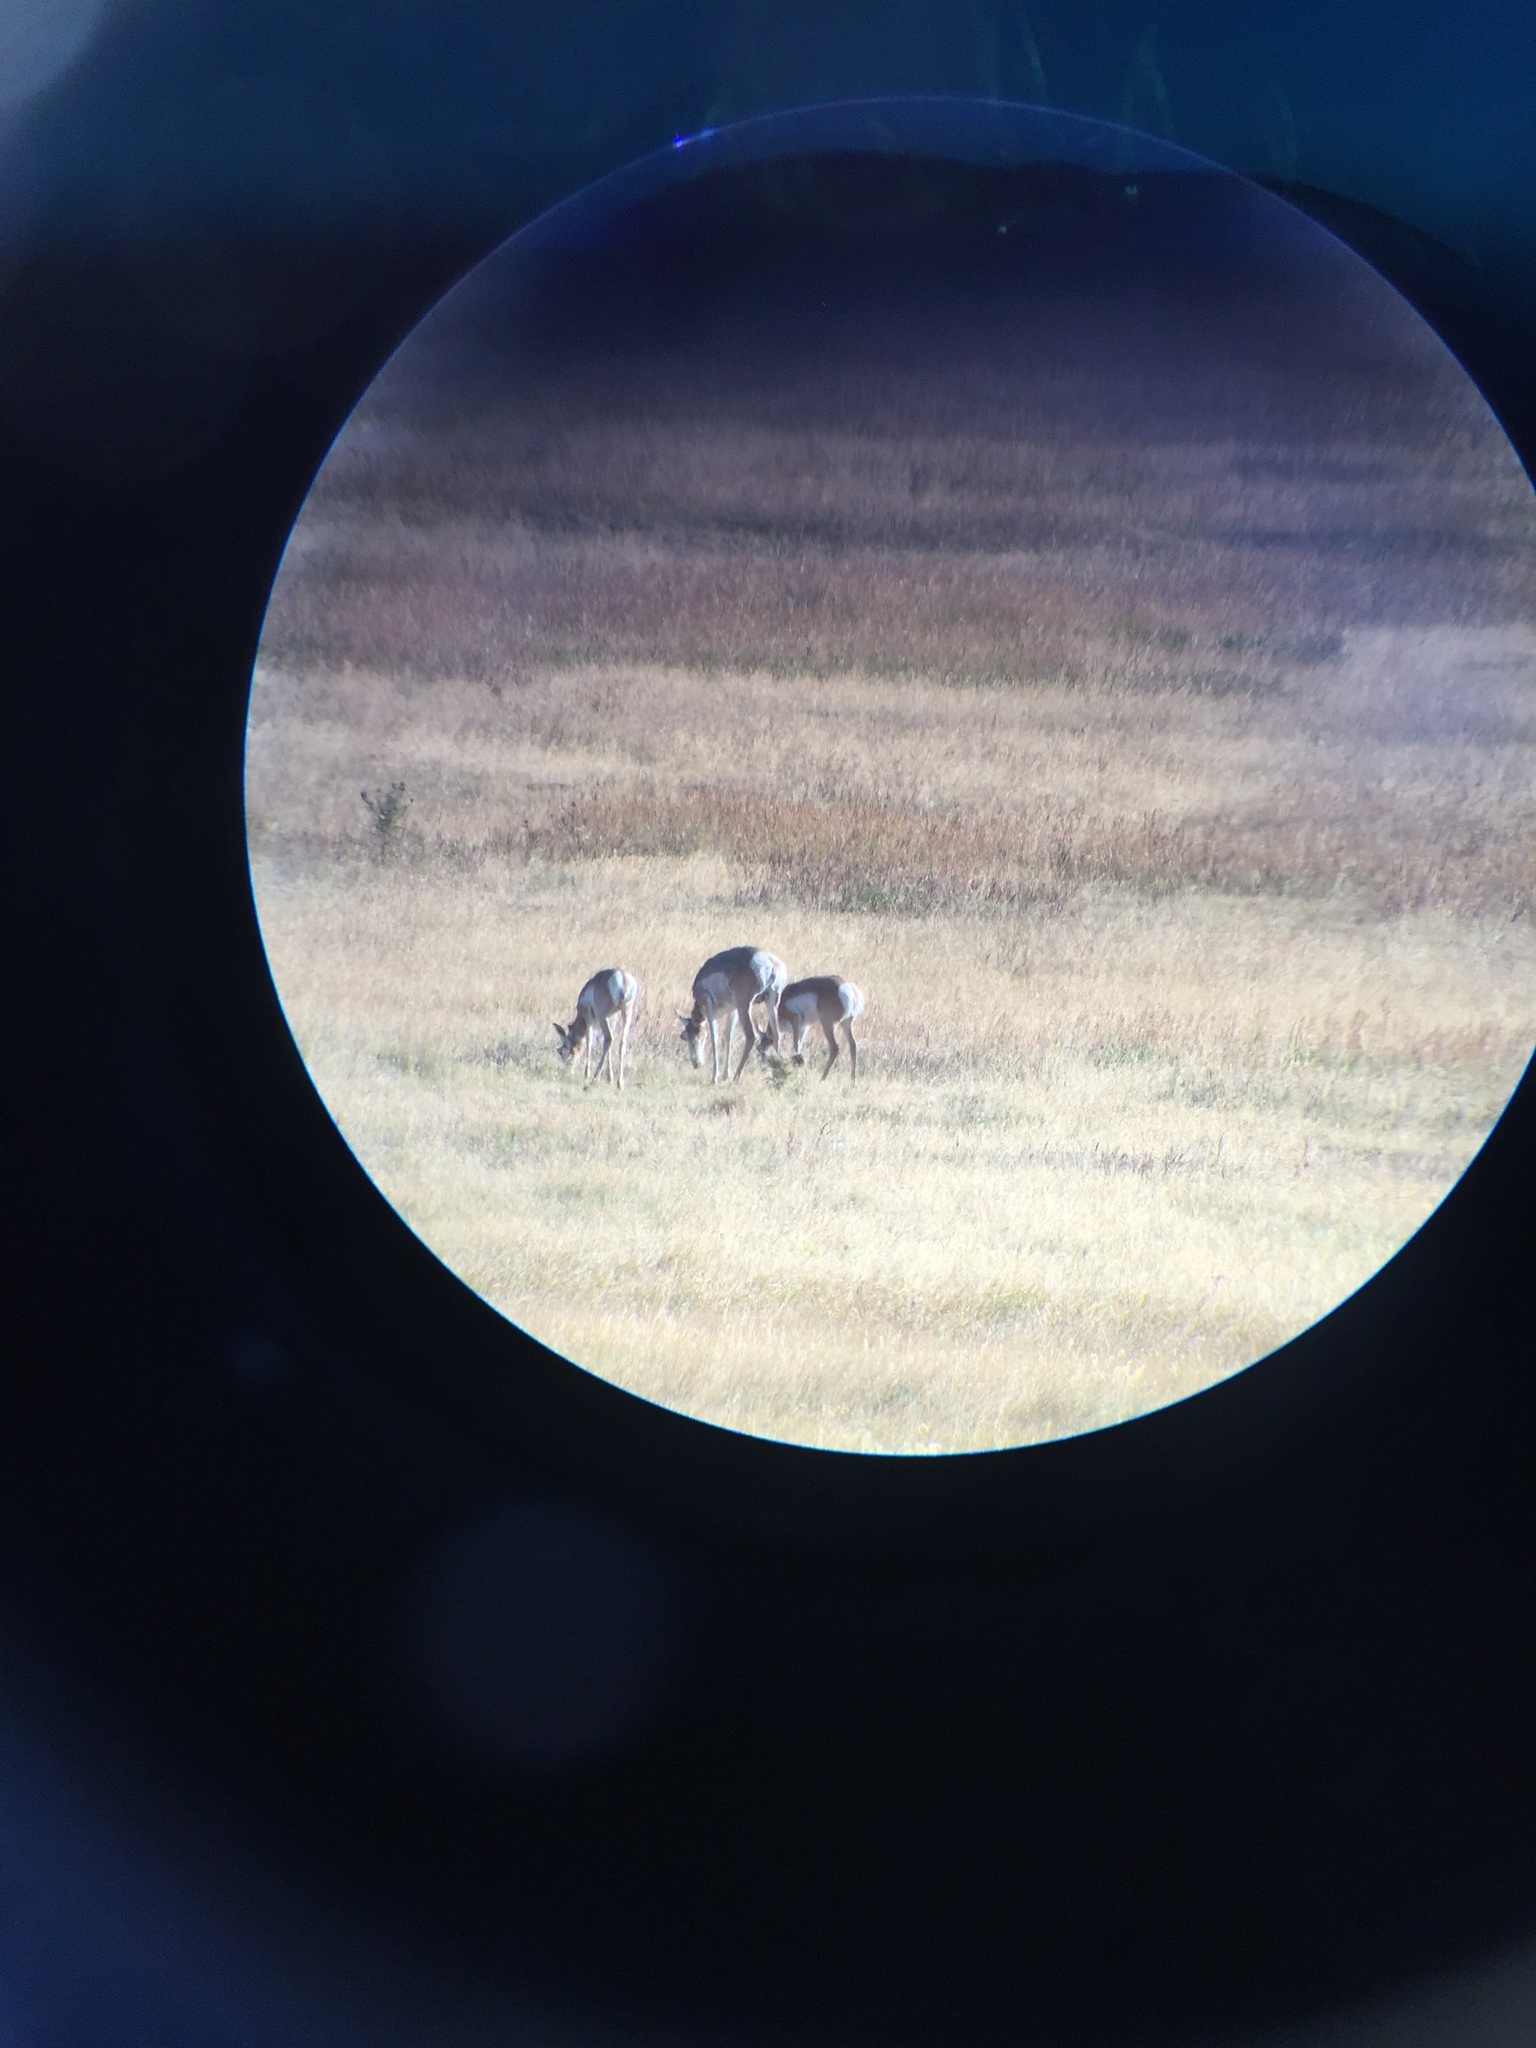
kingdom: Animalia
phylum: Chordata
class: Mammalia
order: Artiodactyla
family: Antilocapridae
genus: Antilocapra
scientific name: Antilocapra americana
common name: Pronghorn
